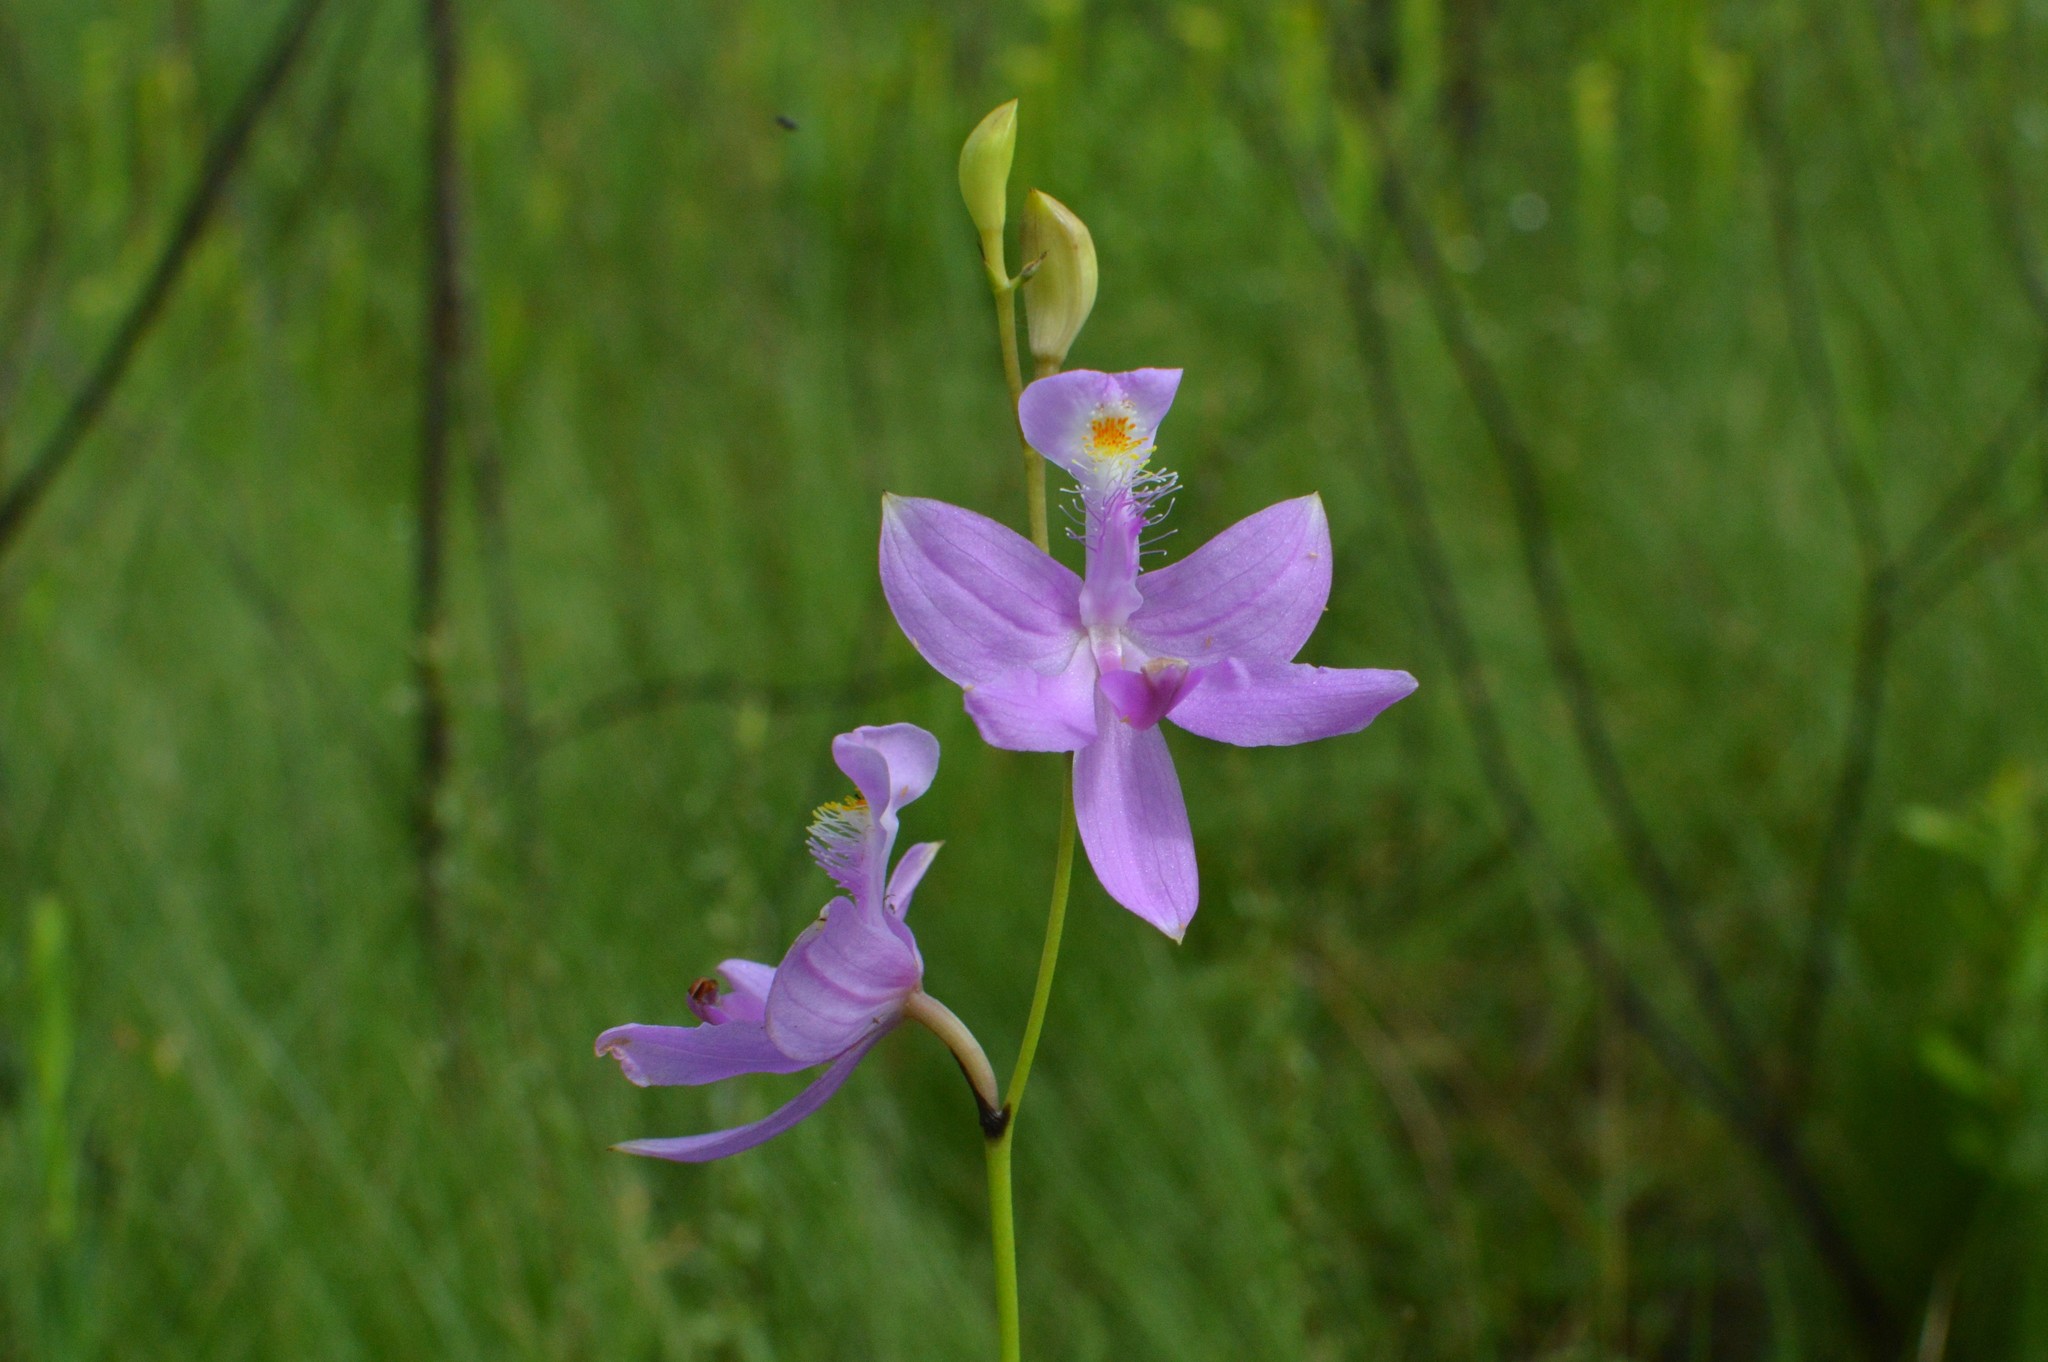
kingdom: Plantae
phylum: Tracheophyta
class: Liliopsida
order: Asparagales
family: Orchidaceae
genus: Calopogon
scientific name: Calopogon tuberosus
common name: Grass-pink
